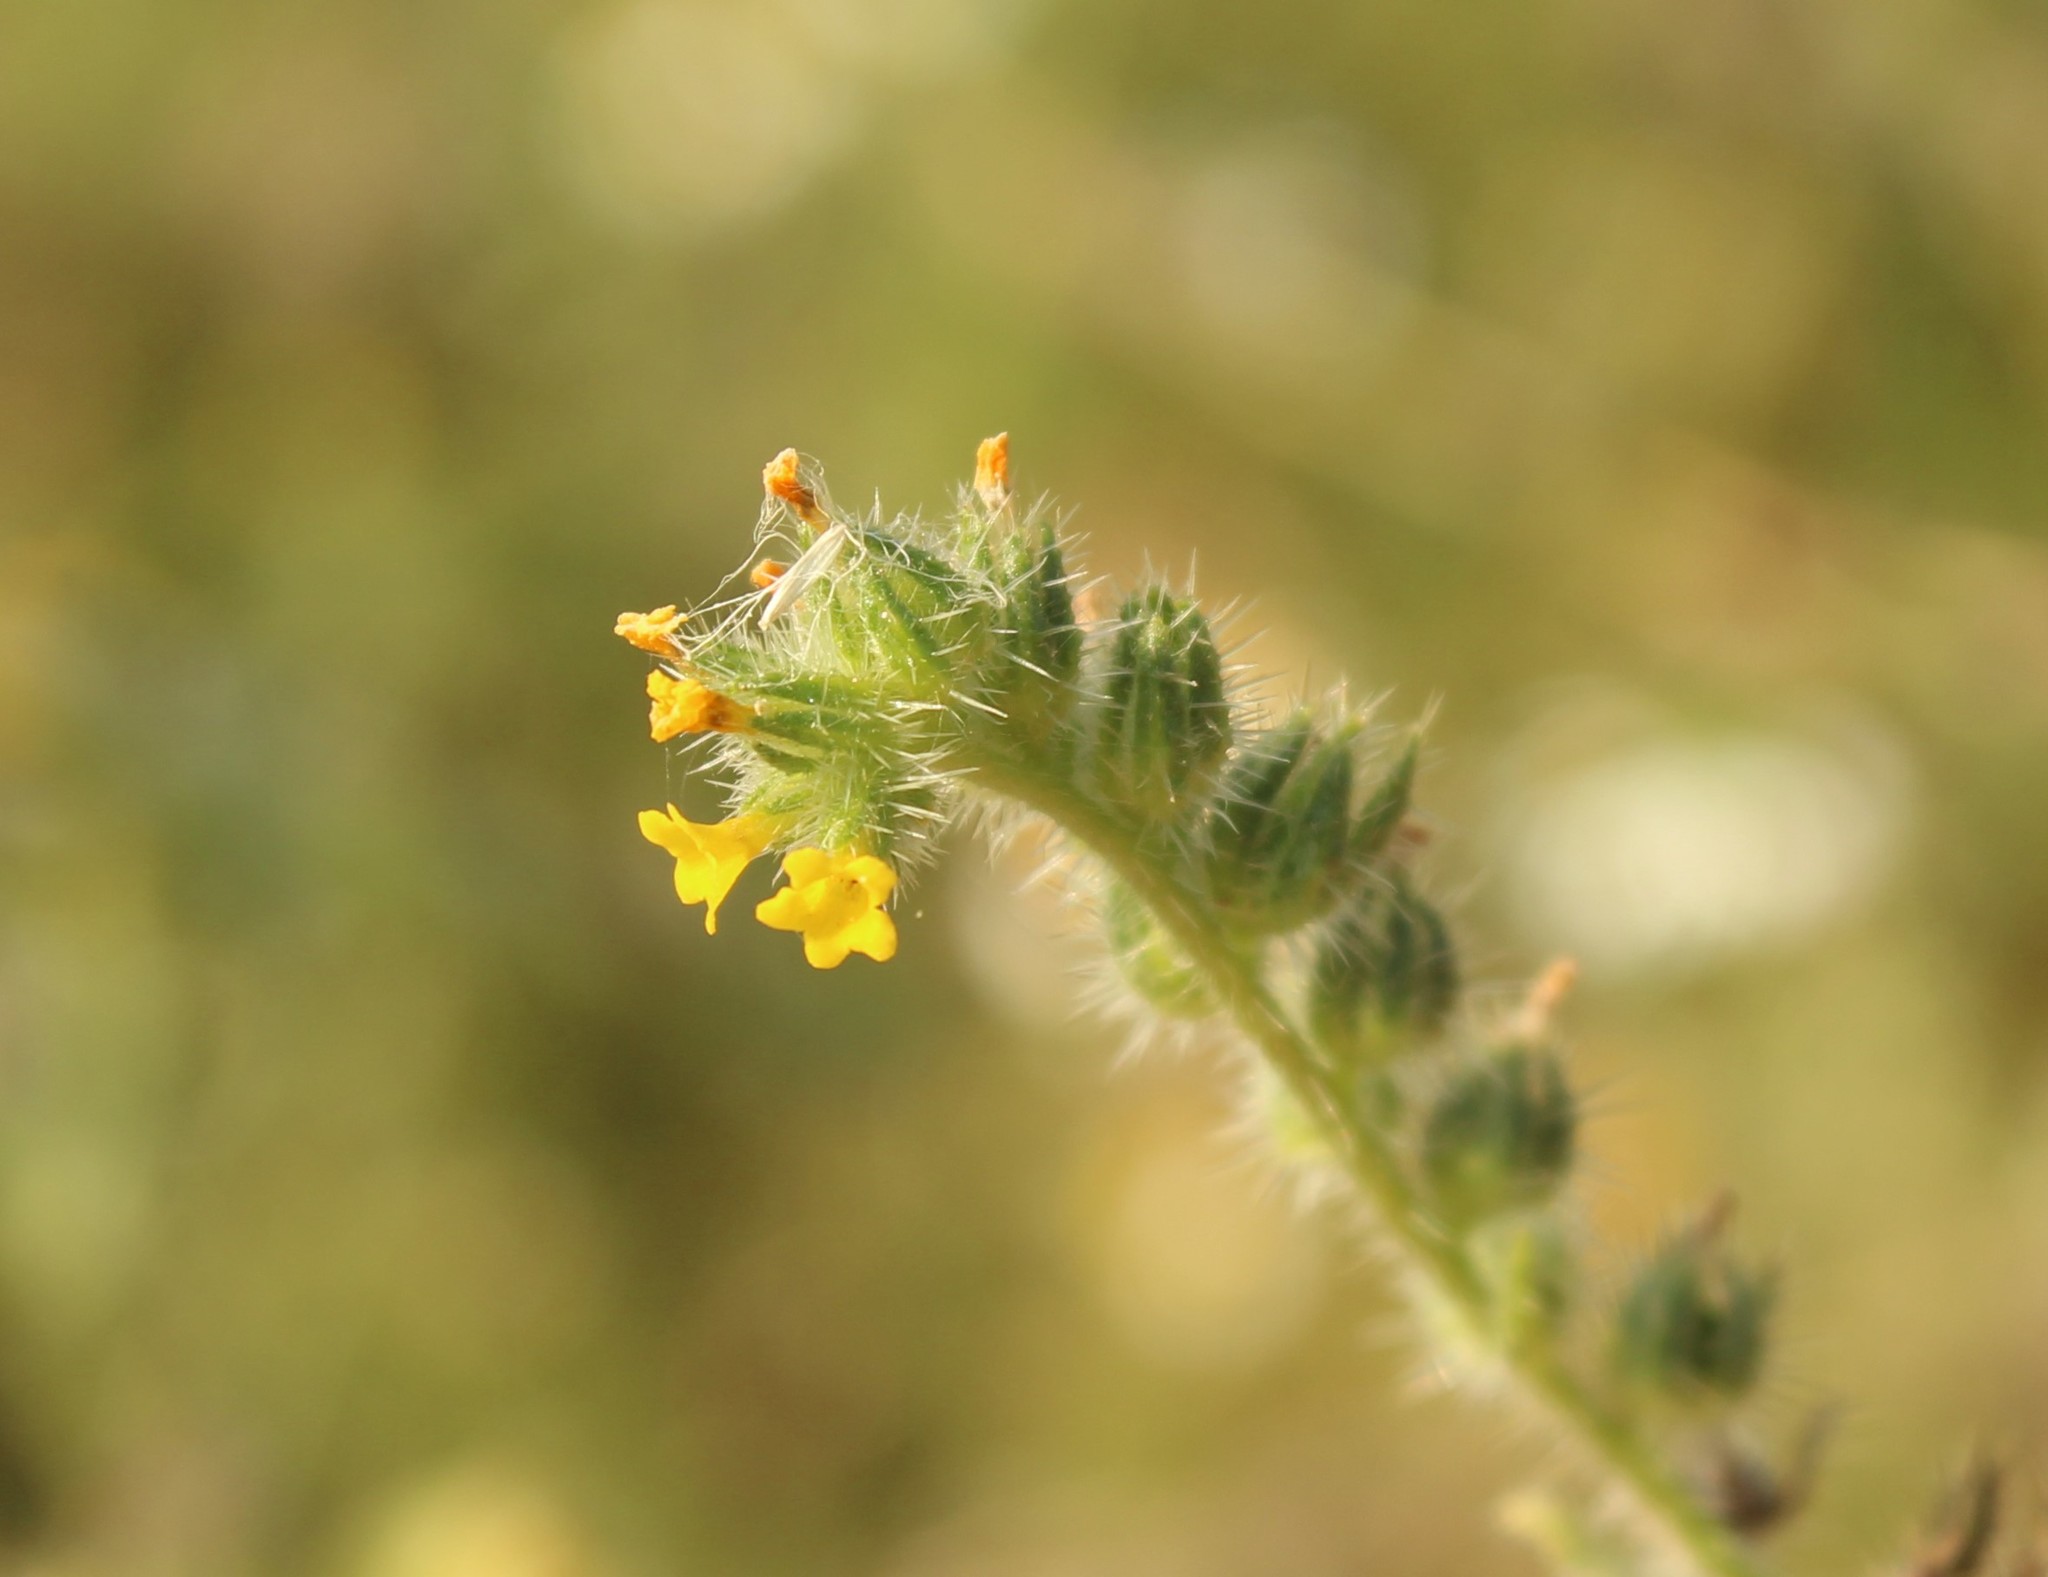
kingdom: Plantae
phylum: Tracheophyta
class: Magnoliopsida
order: Boraginales
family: Boraginaceae
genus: Amsinckia
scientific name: Amsinckia menziesii
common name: Menzies' fiddleneck
